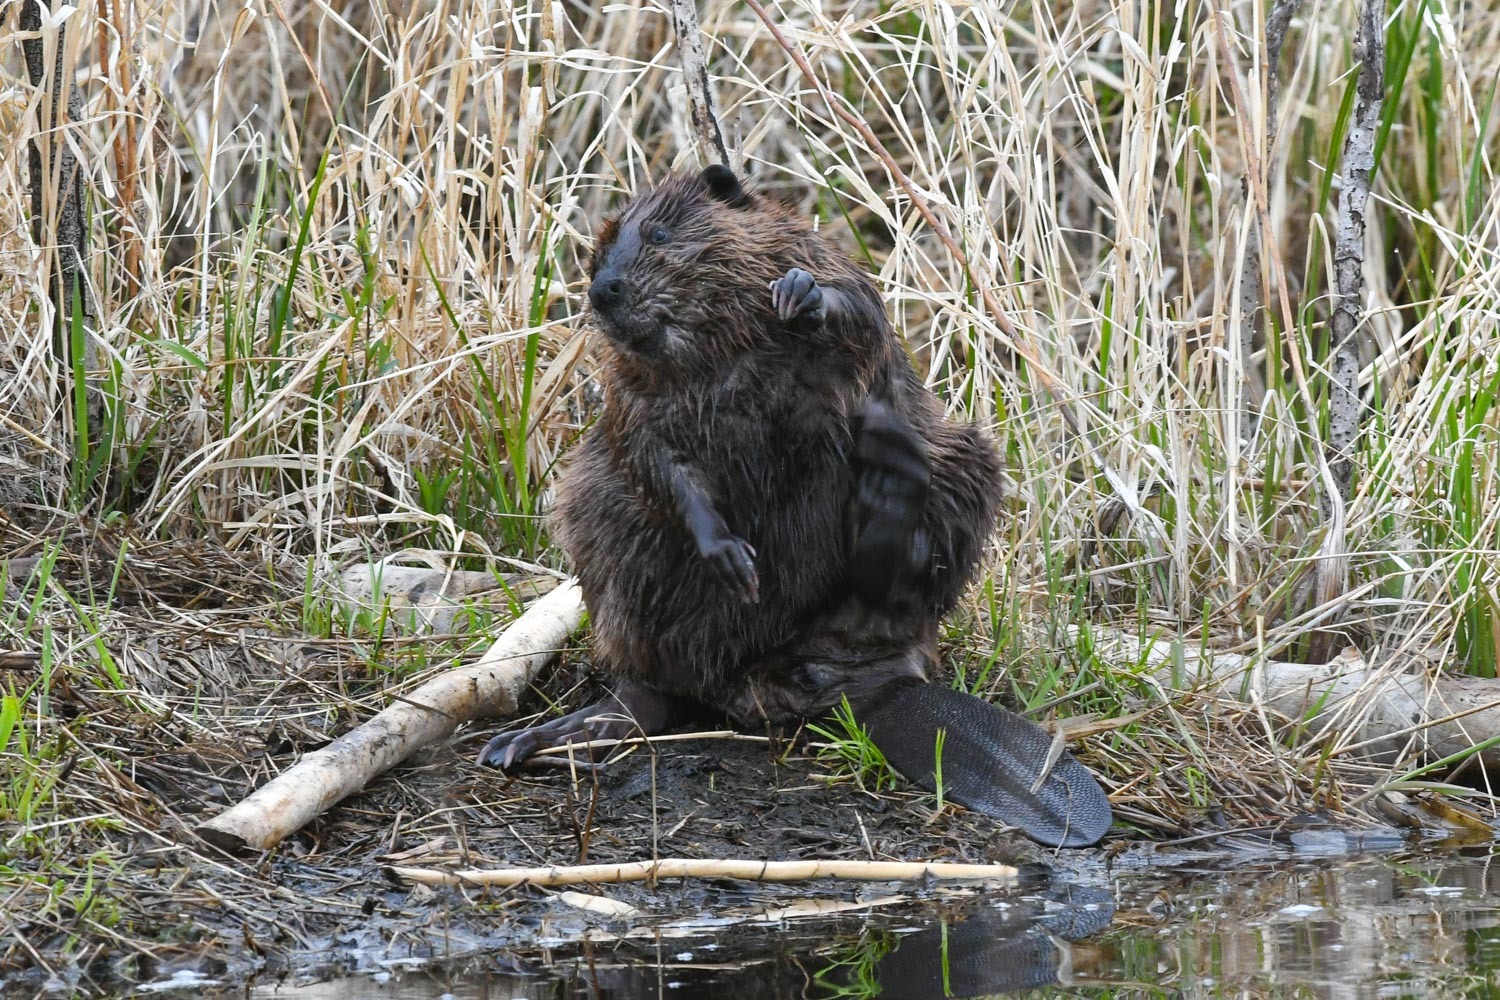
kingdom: Animalia
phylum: Chordata
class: Mammalia
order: Rodentia
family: Castoridae
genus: Castor
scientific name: Castor canadensis
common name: American beaver
